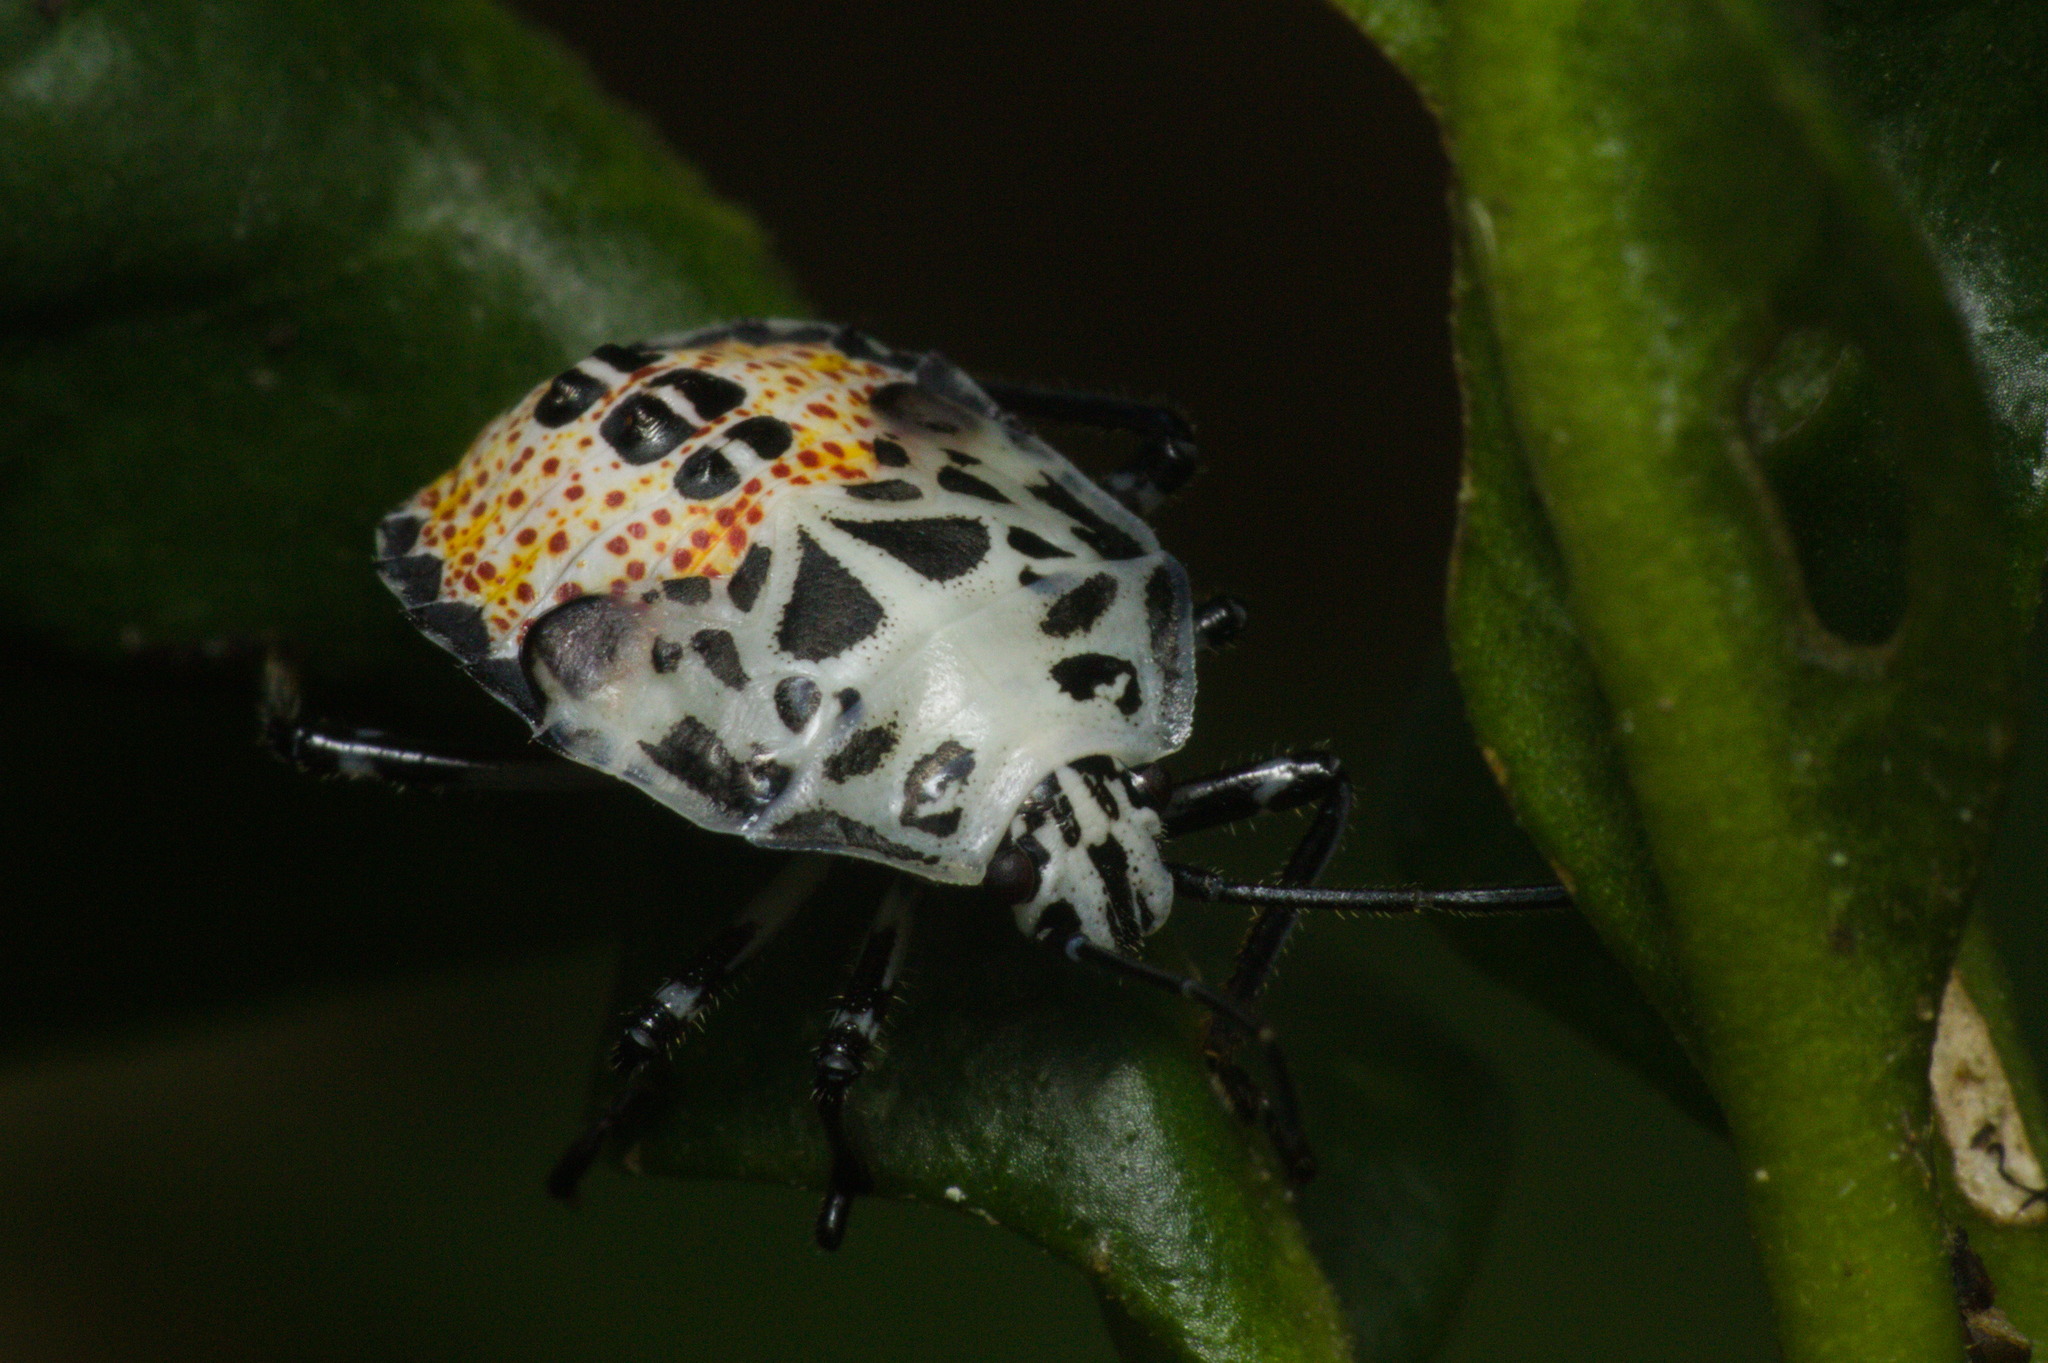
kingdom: Animalia
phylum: Arthropoda
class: Insecta
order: Hemiptera
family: Pentatomidae
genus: Runibia
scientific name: Runibia perspicua
